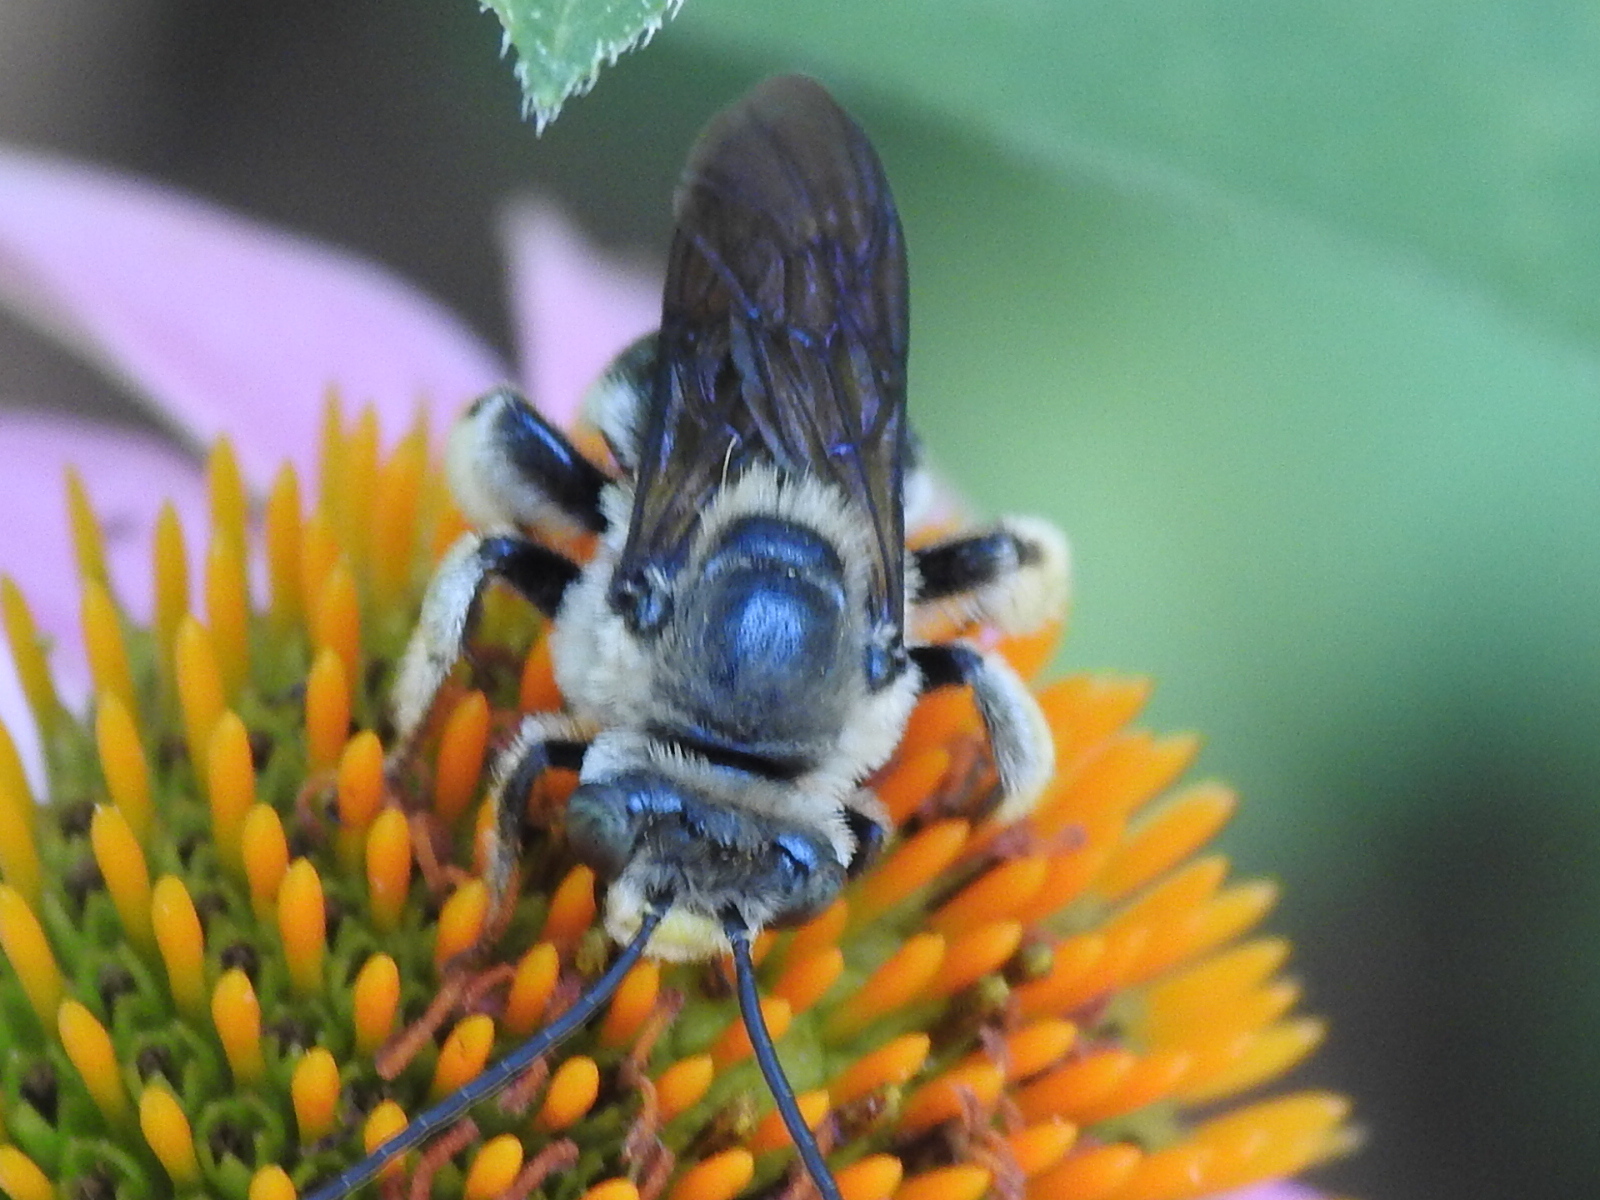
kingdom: Animalia
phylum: Arthropoda
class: Insecta
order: Hymenoptera
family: Apidae
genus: Melissodes
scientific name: Melissodes bimaculatus
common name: Two-spotted long-horned bee
